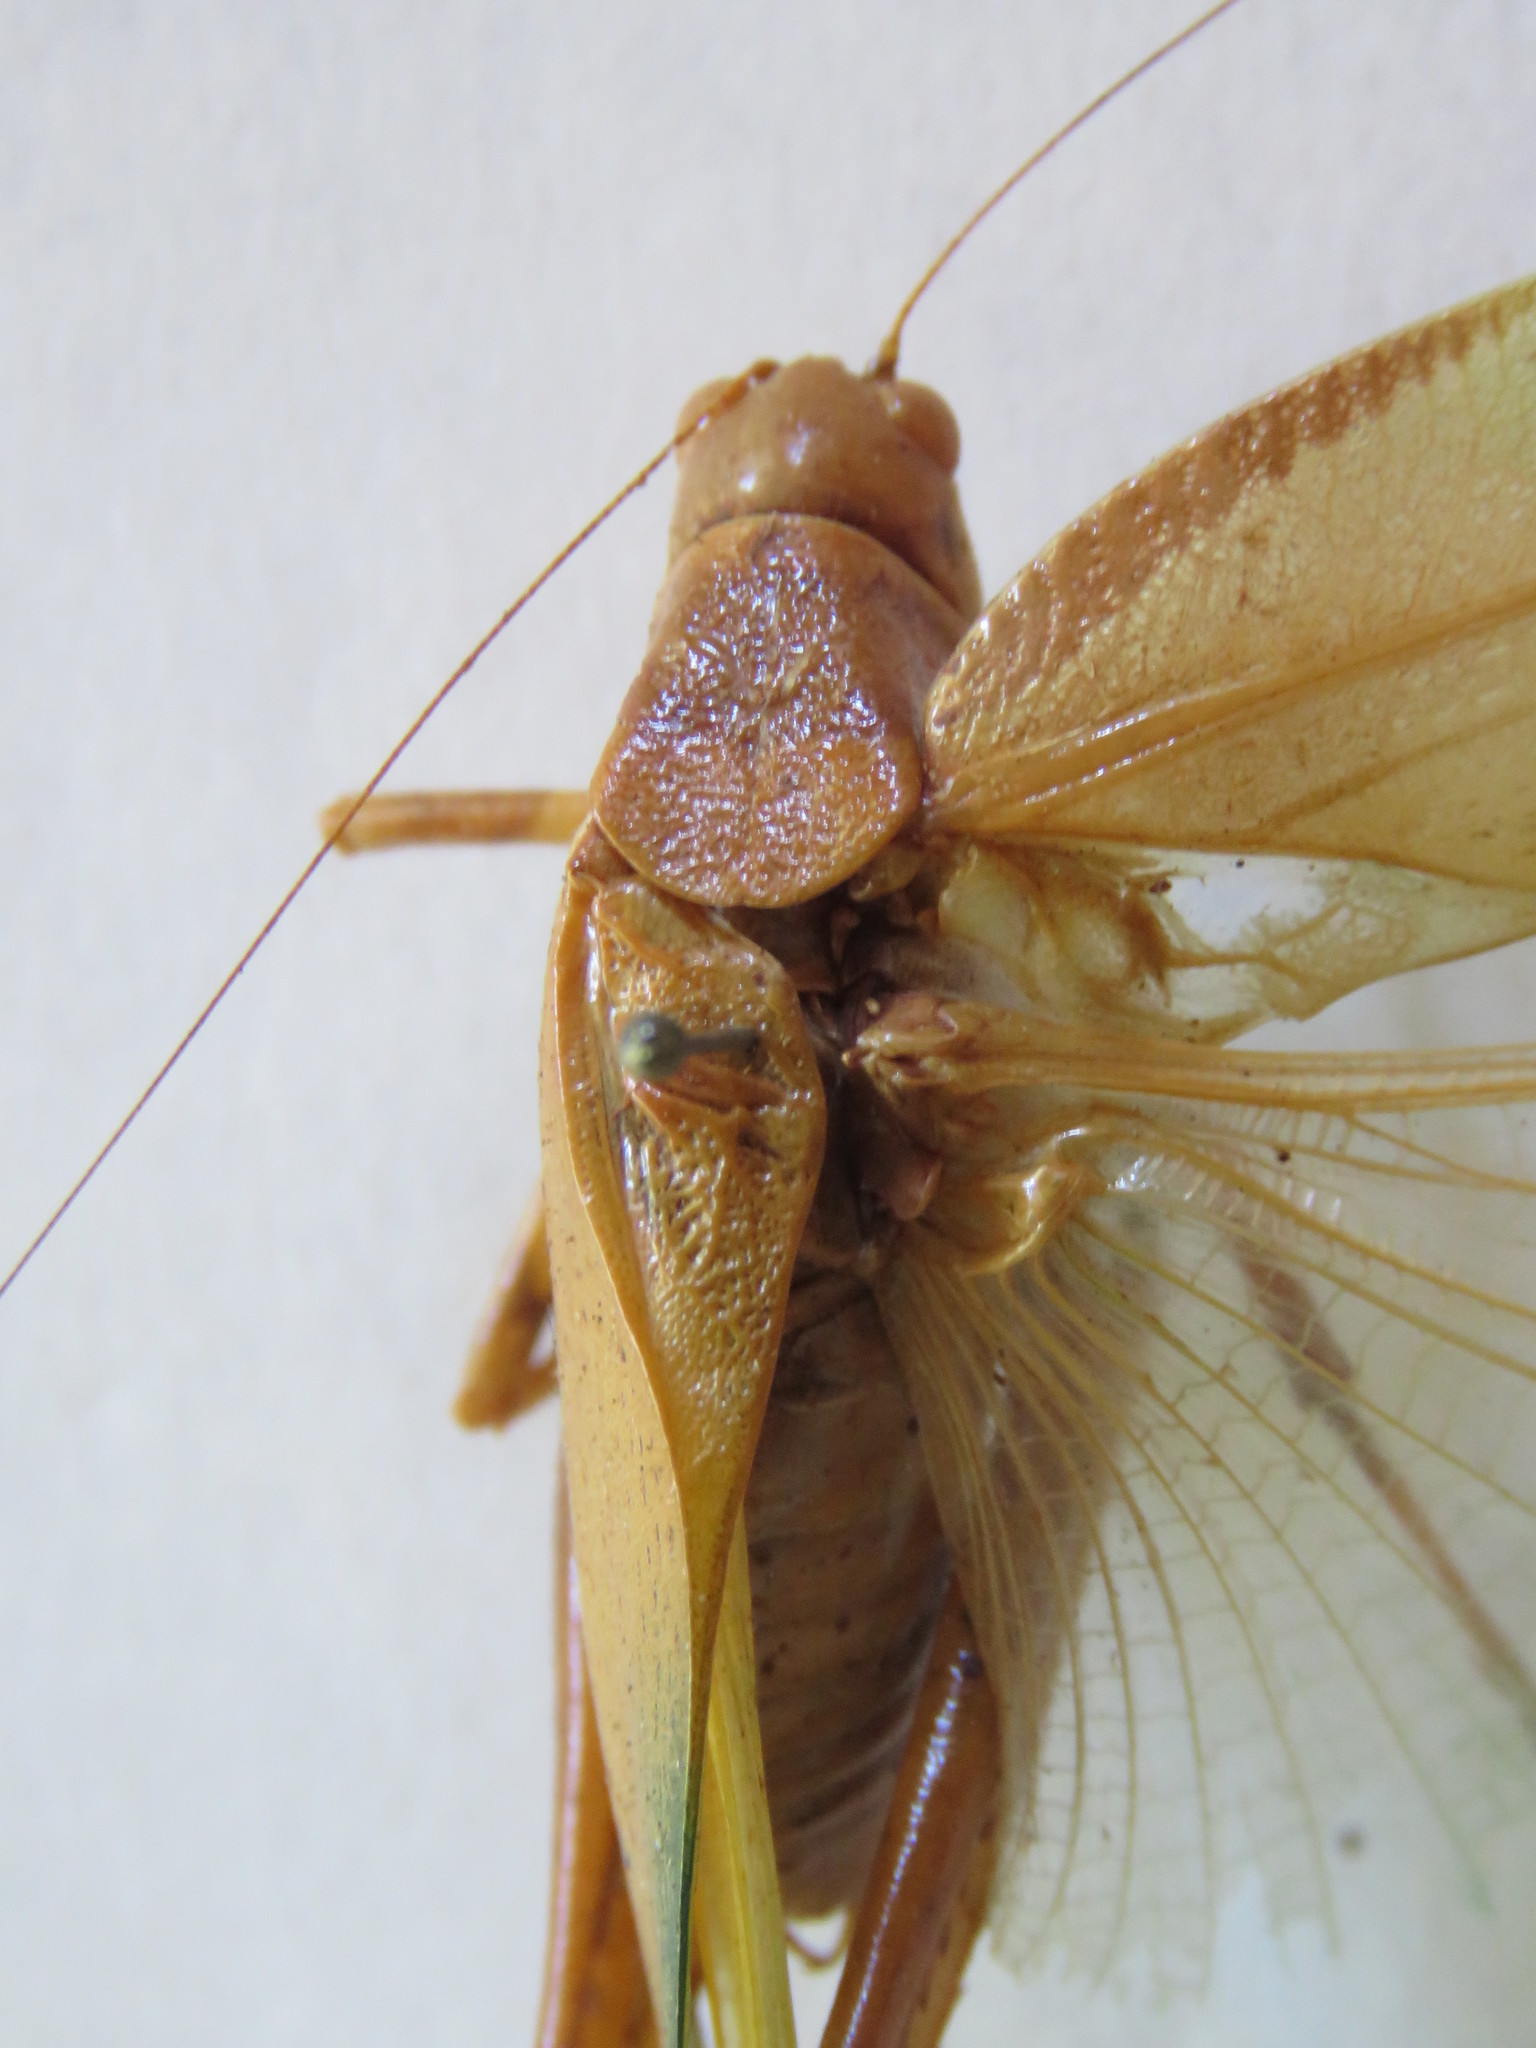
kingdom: Animalia
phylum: Arthropoda
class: Insecta
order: Orthoptera
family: Tettigoniidae
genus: Philophyllia
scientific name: Philophyllia guttulata
